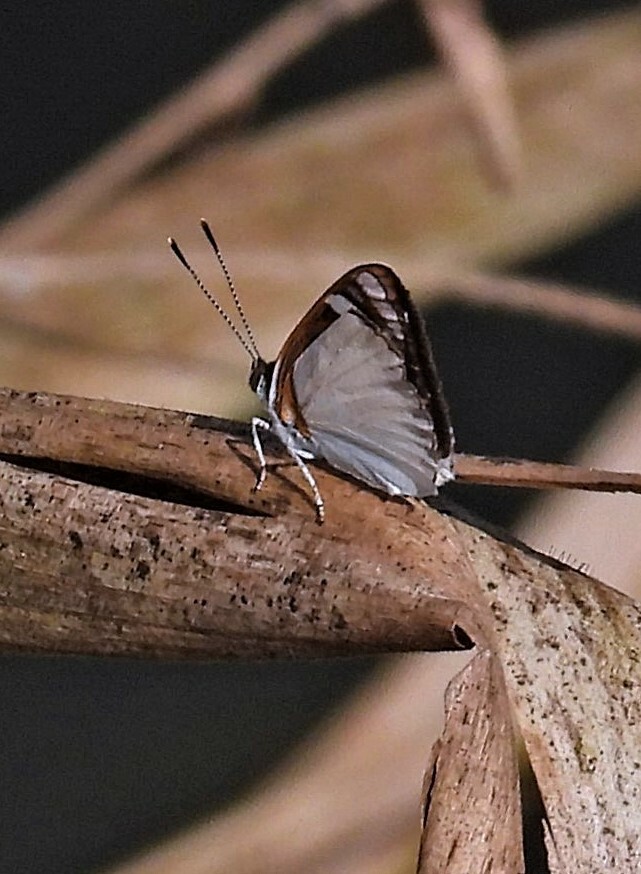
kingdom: Animalia
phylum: Arthropoda
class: Insecta
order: Lepidoptera
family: Nymphalidae
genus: Dynamine
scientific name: Dynamine coenus
